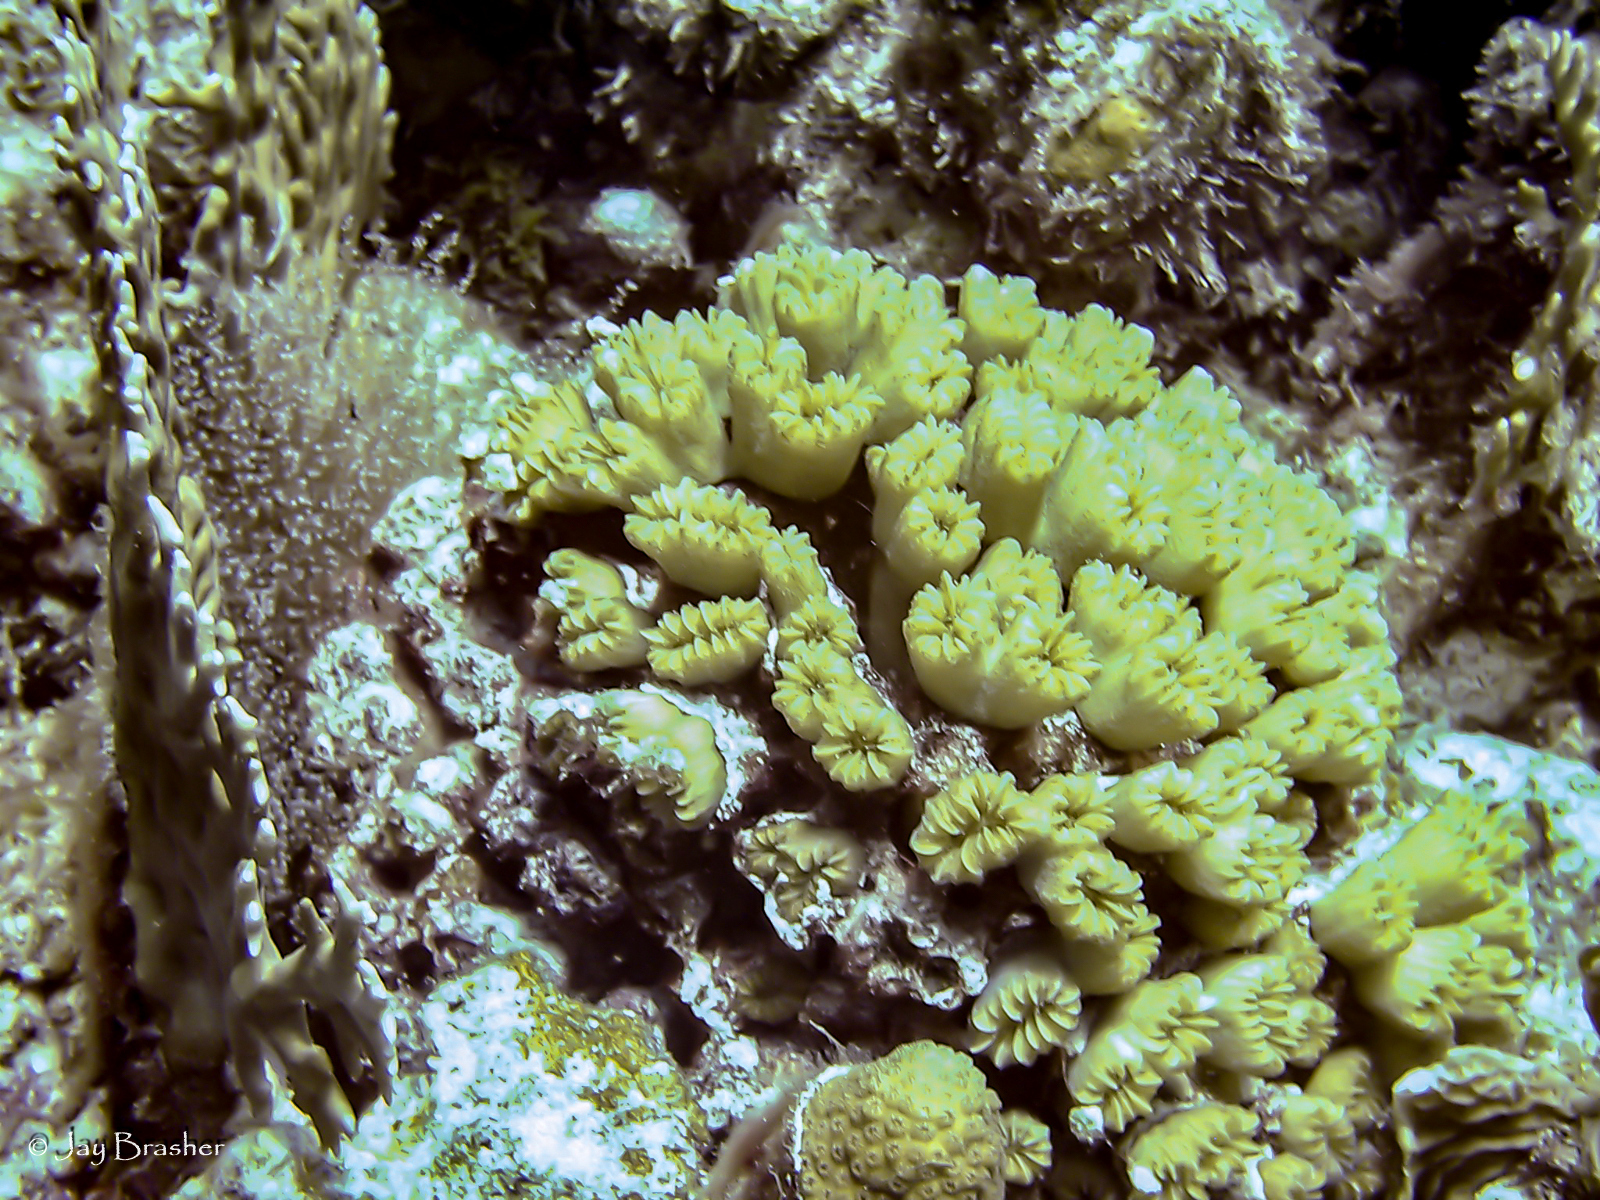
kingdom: Animalia
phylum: Cnidaria
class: Anthozoa
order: Scleractinia
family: Meandrinidae
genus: Eusmilia
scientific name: Eusmilia fastigiata
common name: Smooth flower coral
